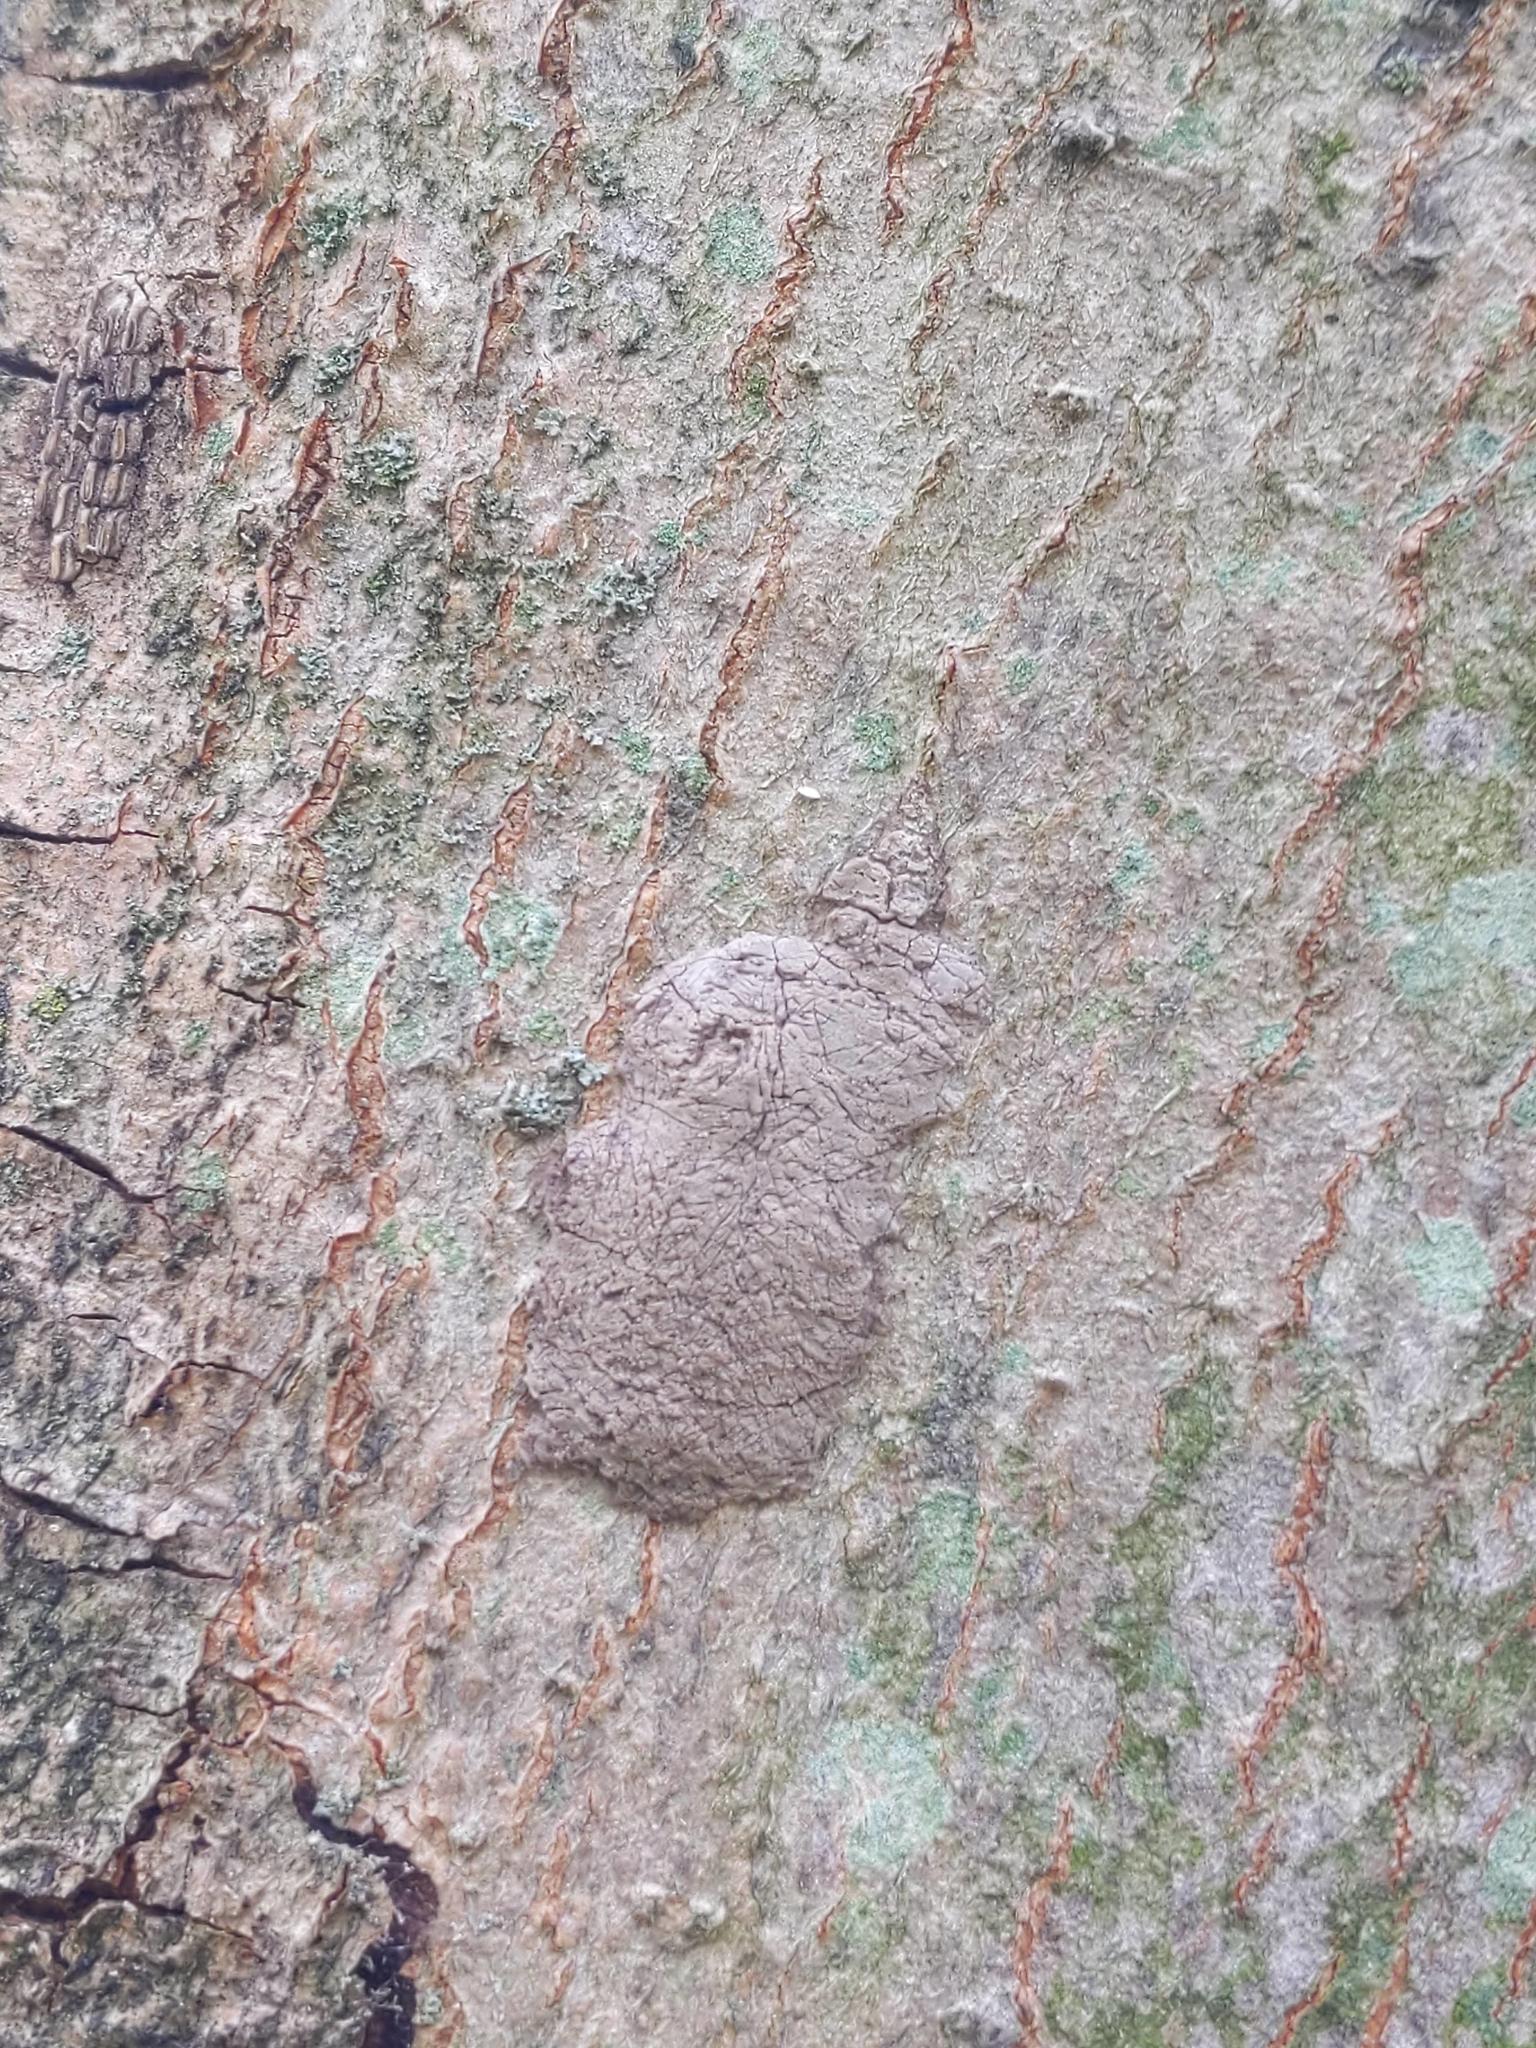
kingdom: Animalia
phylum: Arthropoda
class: Insecta
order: Hemiptera
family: Fulgoridae
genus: Lycorma
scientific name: Lycorma delicatula
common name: Spotted lanternfly
